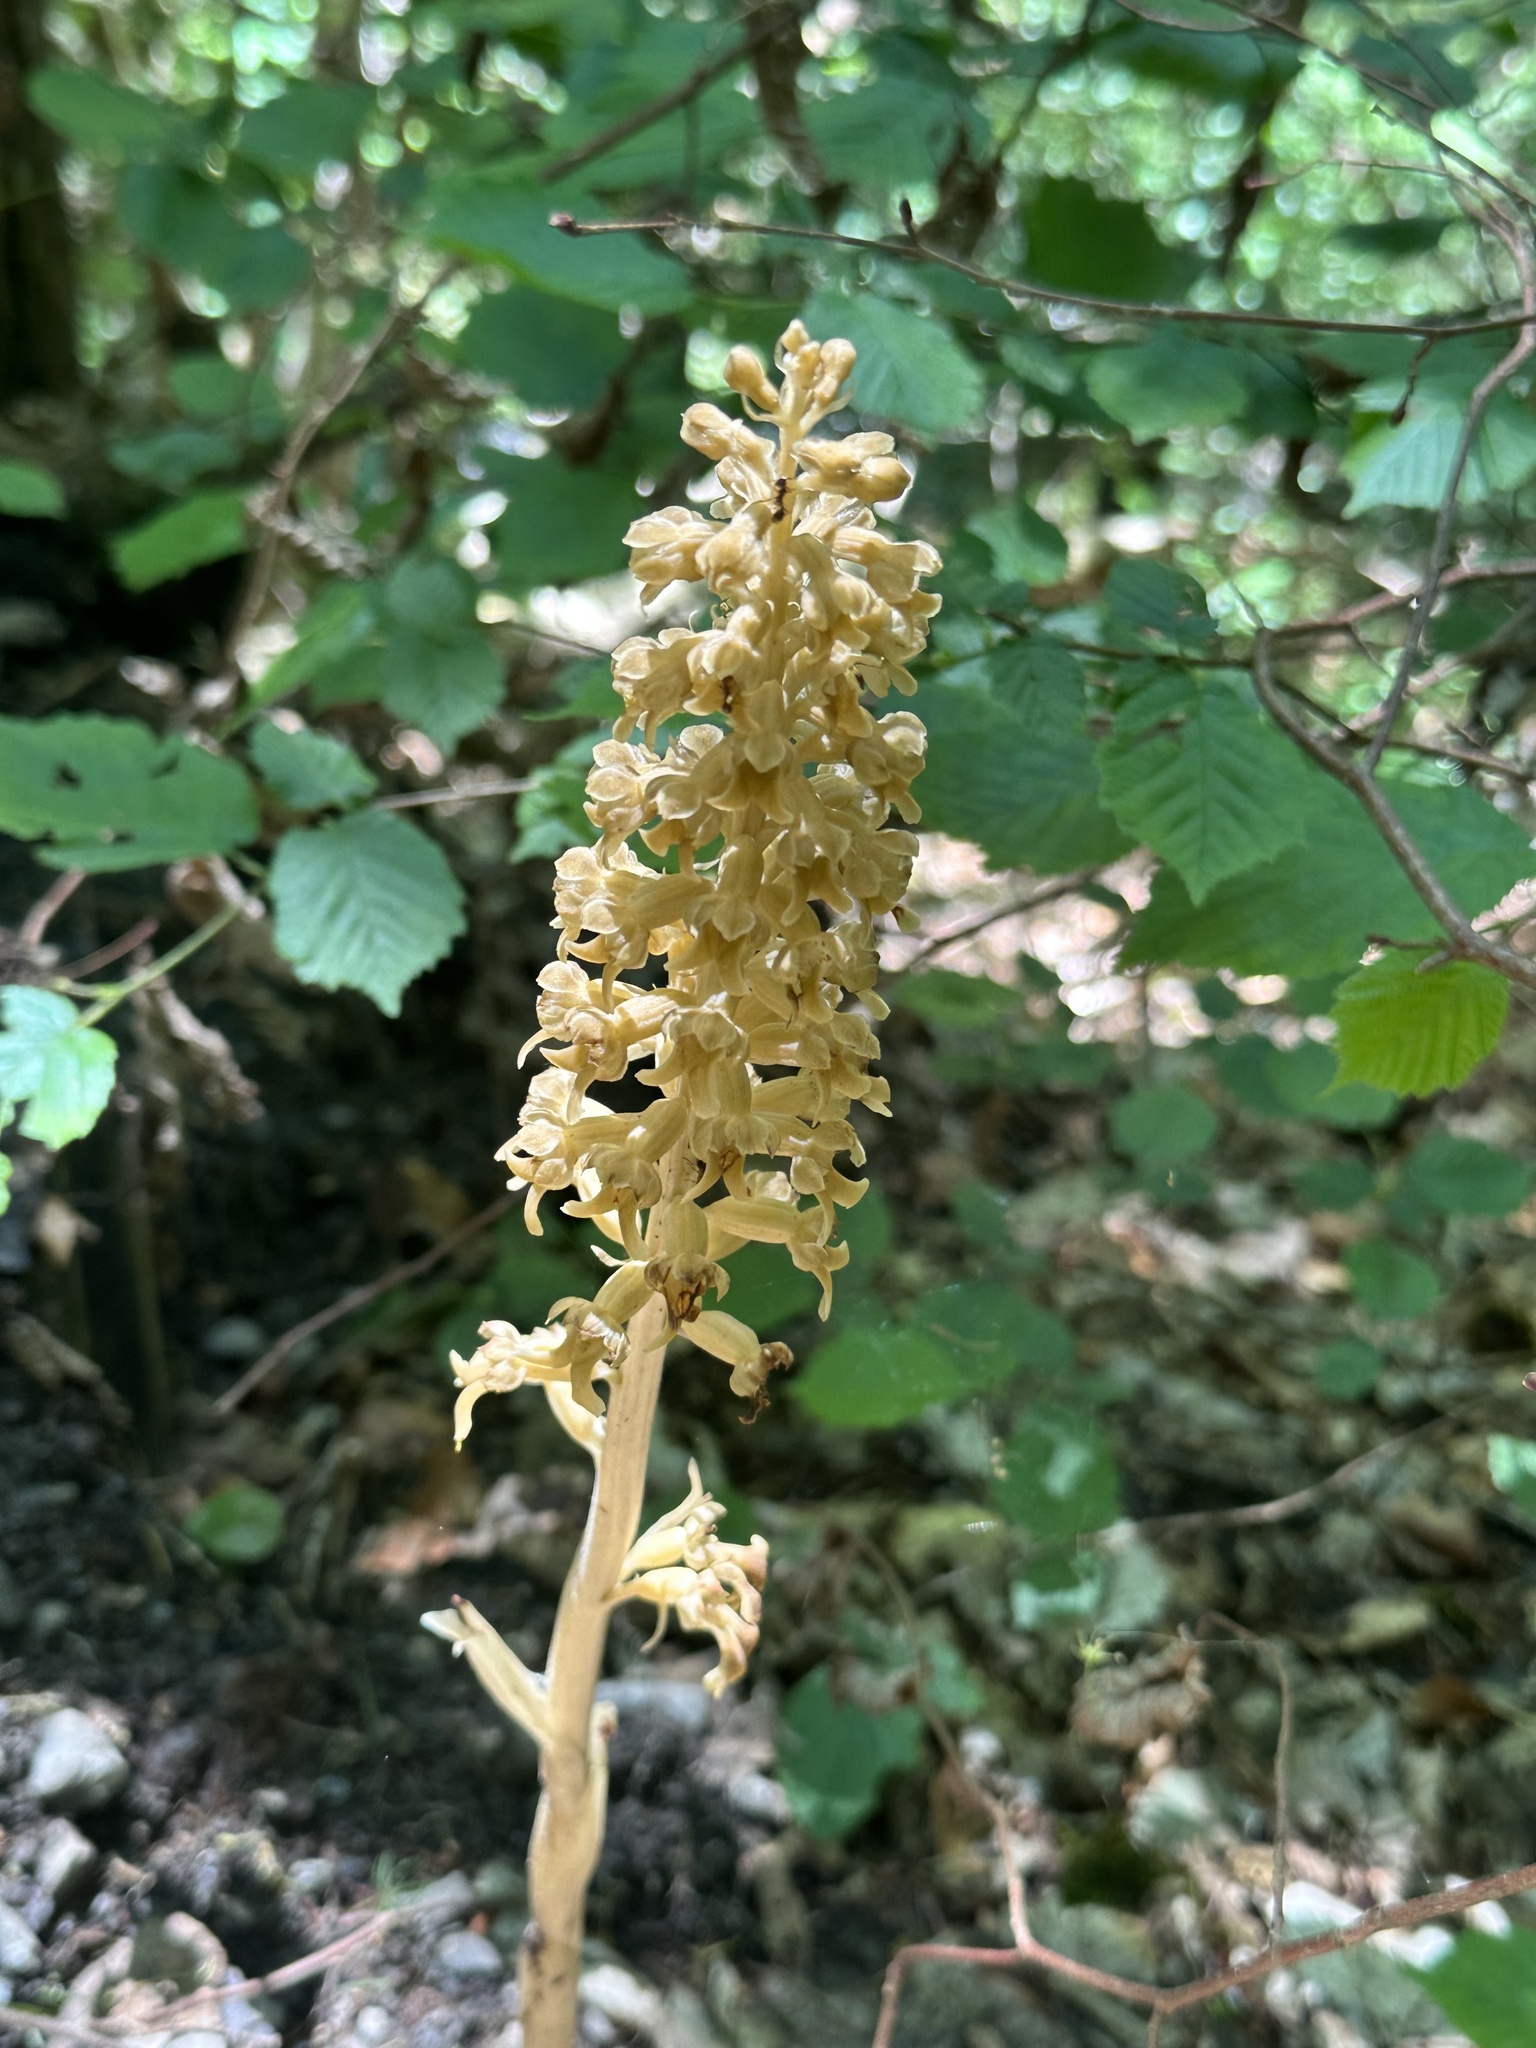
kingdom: Plantae
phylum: Tracheophyta
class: Liliopsida
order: Asparagales
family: Orchidaceae
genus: Neottia
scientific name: Neottia nidus-avis
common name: Bird's-nest orchid
